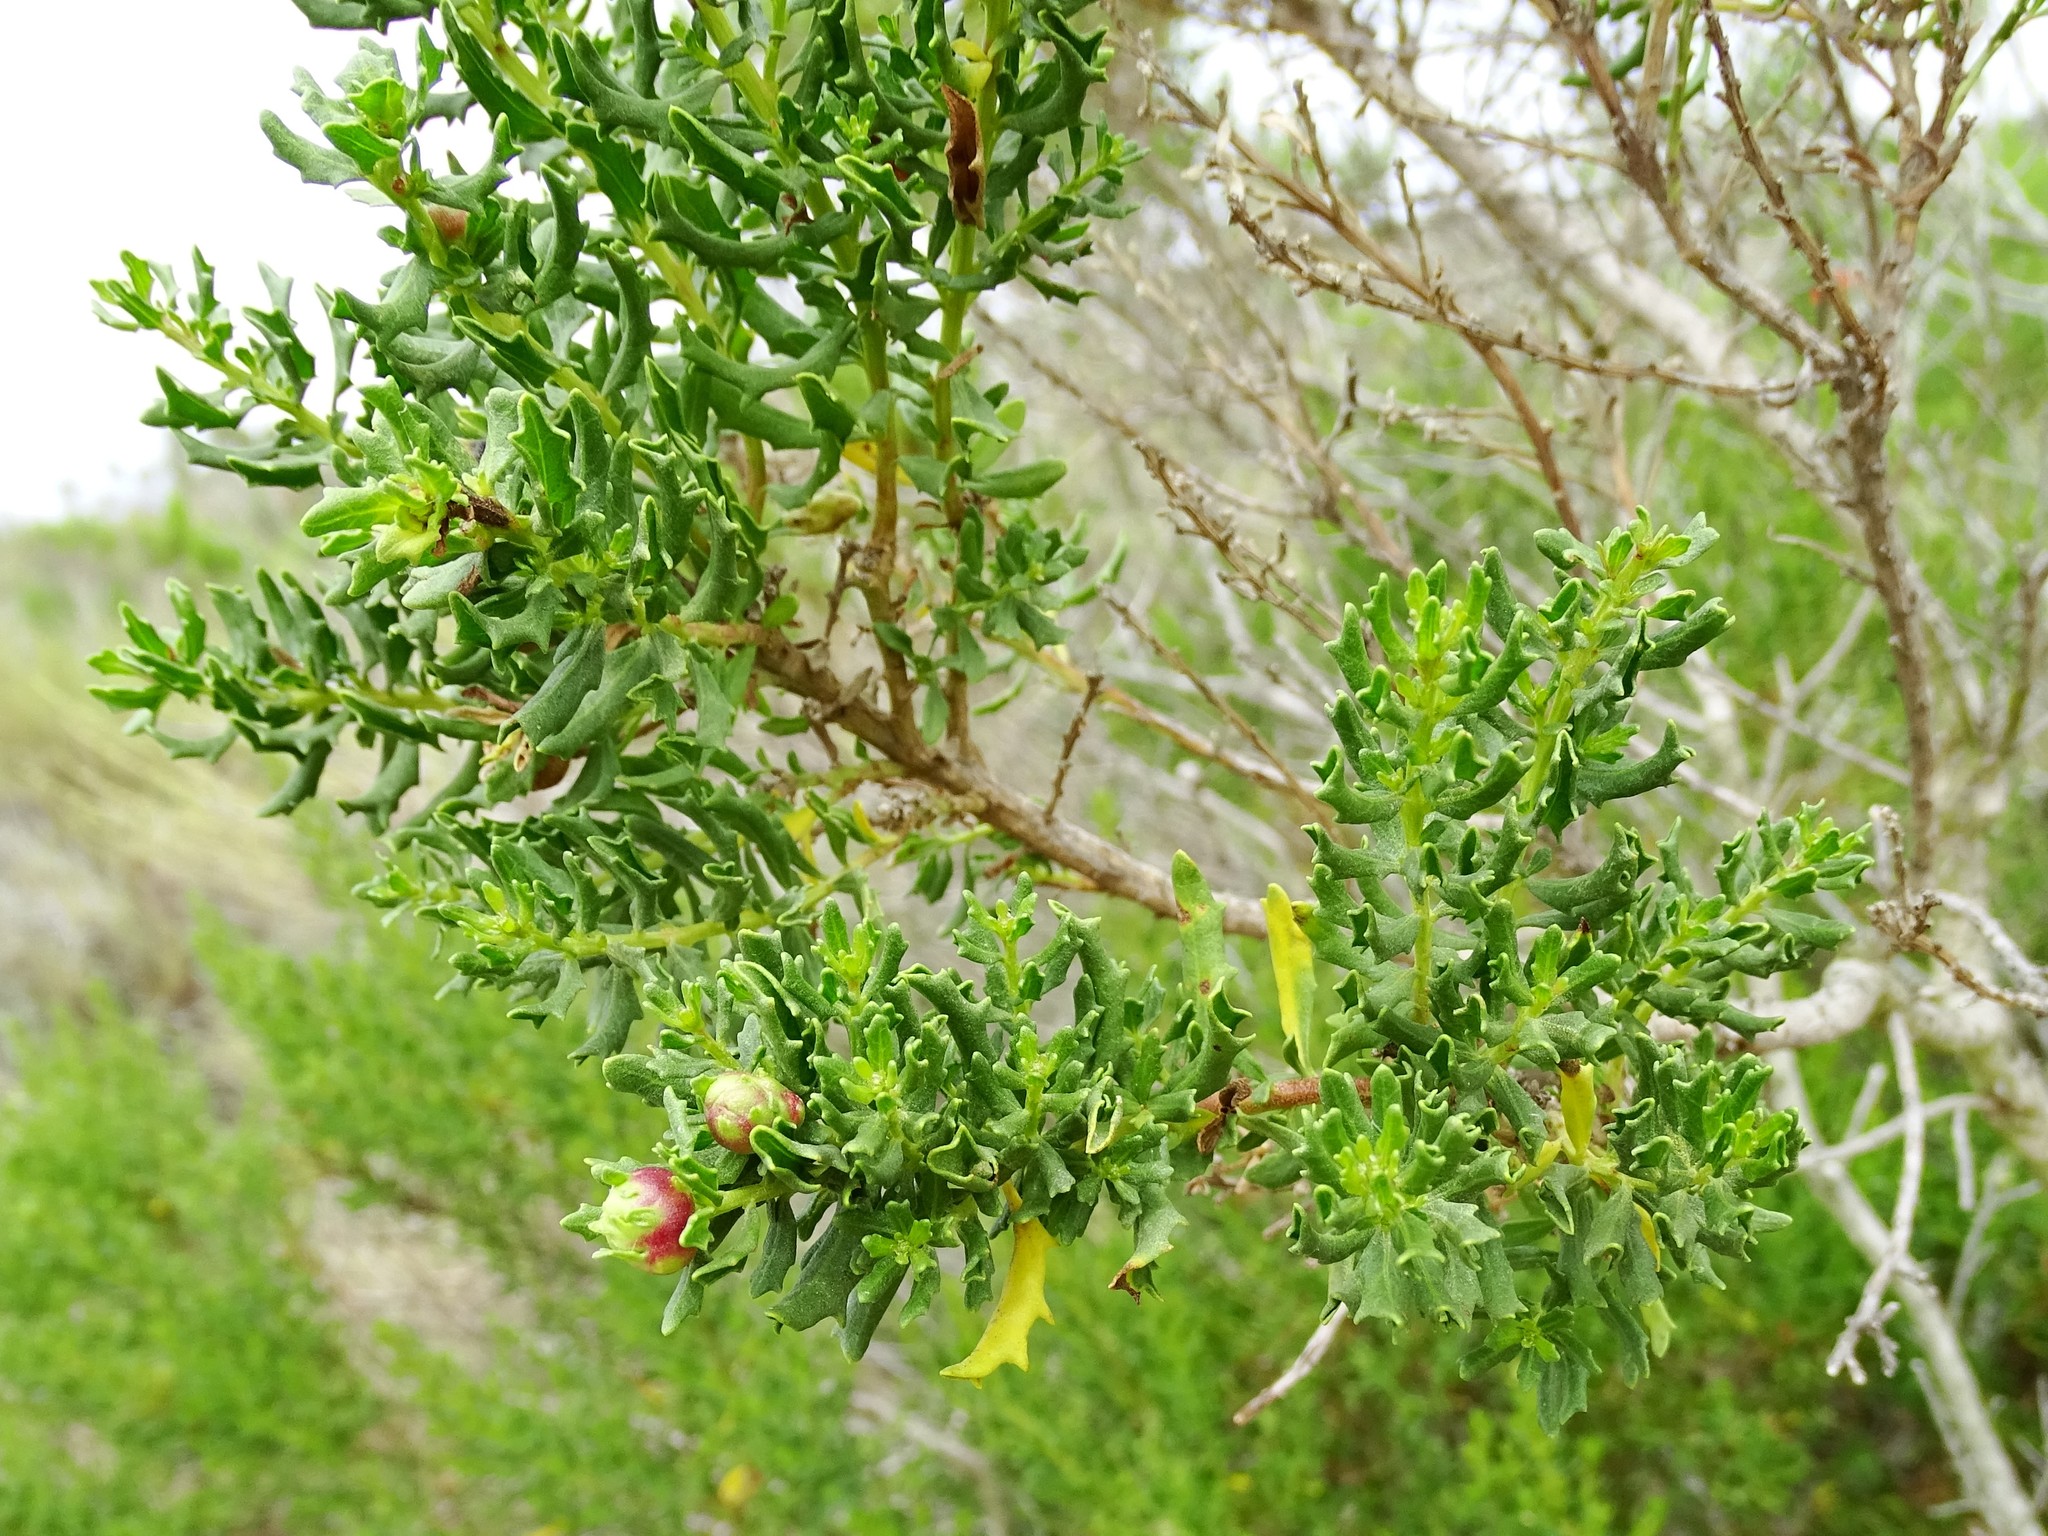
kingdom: Plantae
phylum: Tracheophyta
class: Magnoliopsida
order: Asterales
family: Asteraceae
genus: Baccharis
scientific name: Baccharis pilularis
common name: Coyotebrush
